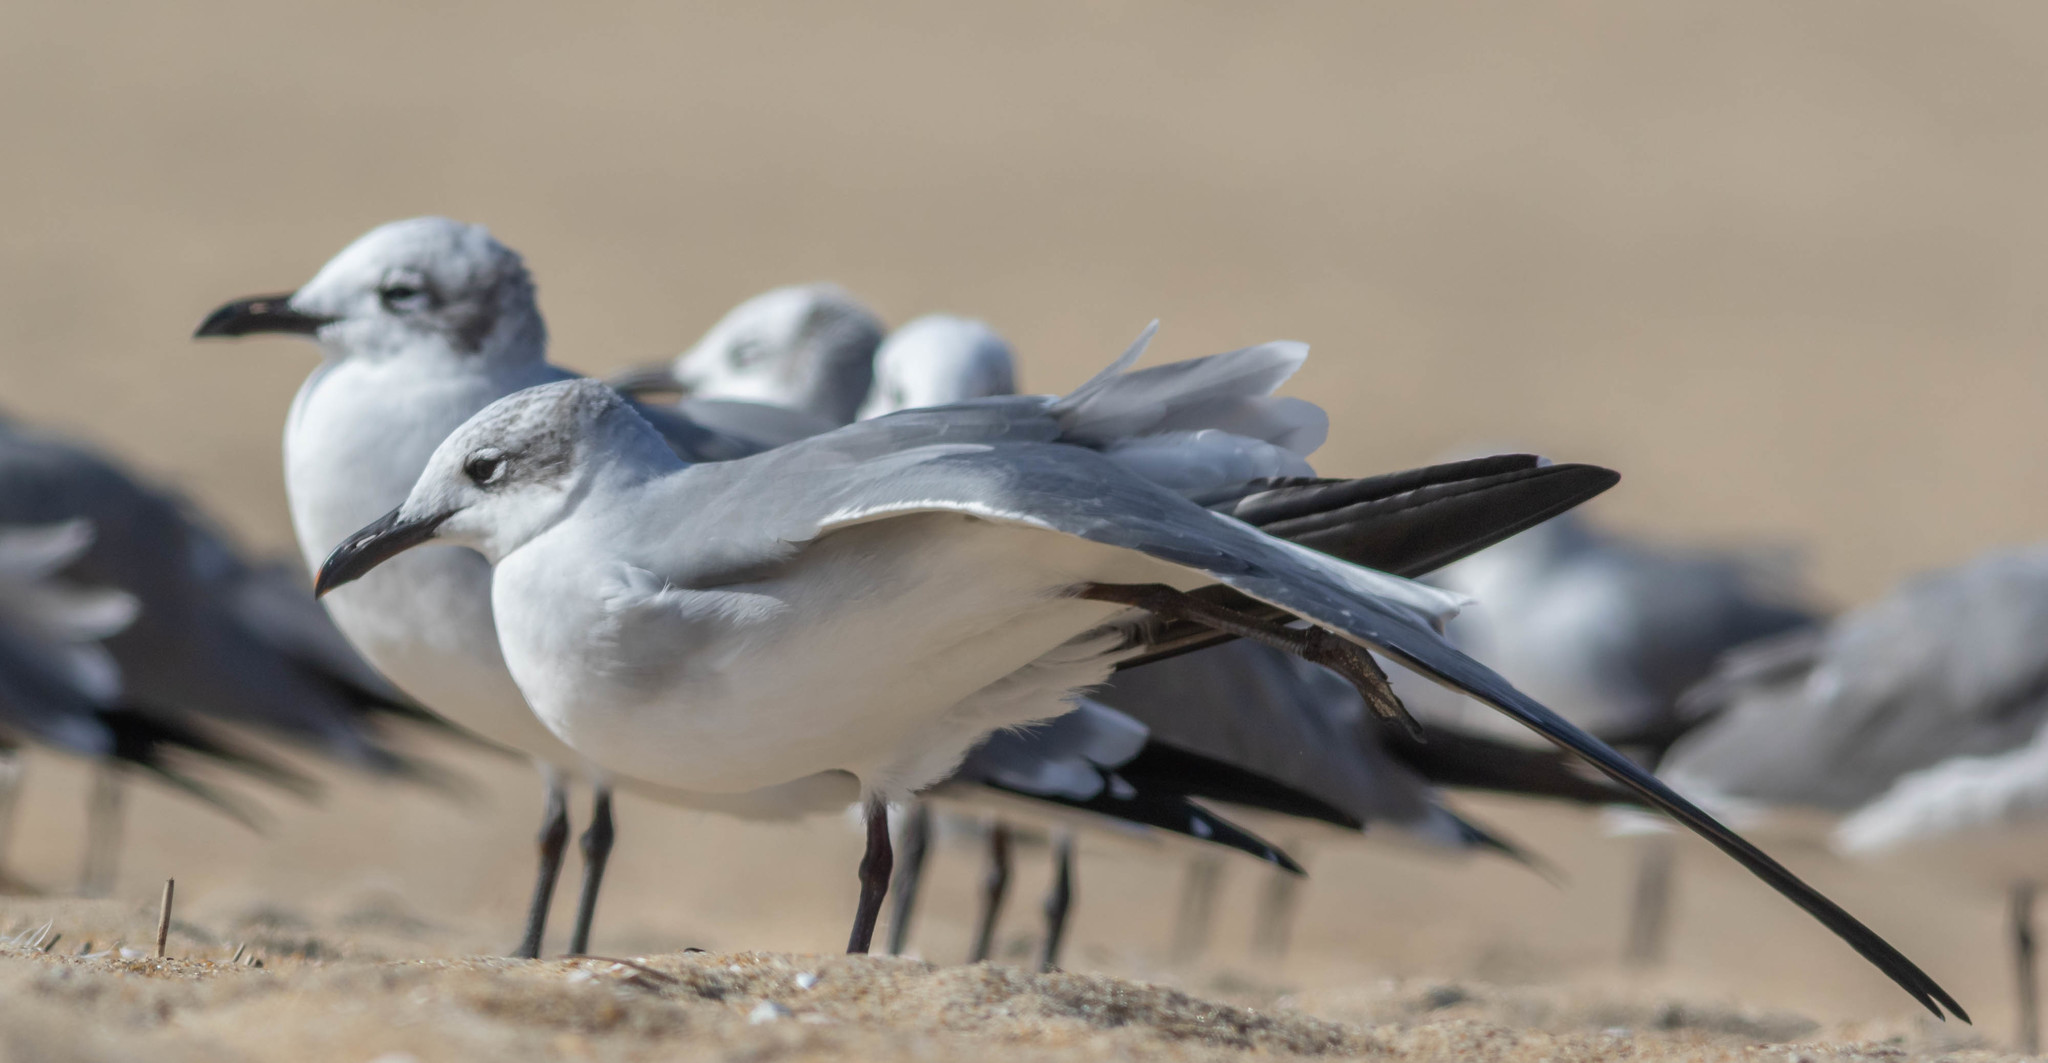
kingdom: Animalia
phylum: Chordata
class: Aves
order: Charadriiformes
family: Laridae
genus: Leucophaeus
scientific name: Leucophaeus atricilla
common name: Laughing gull
